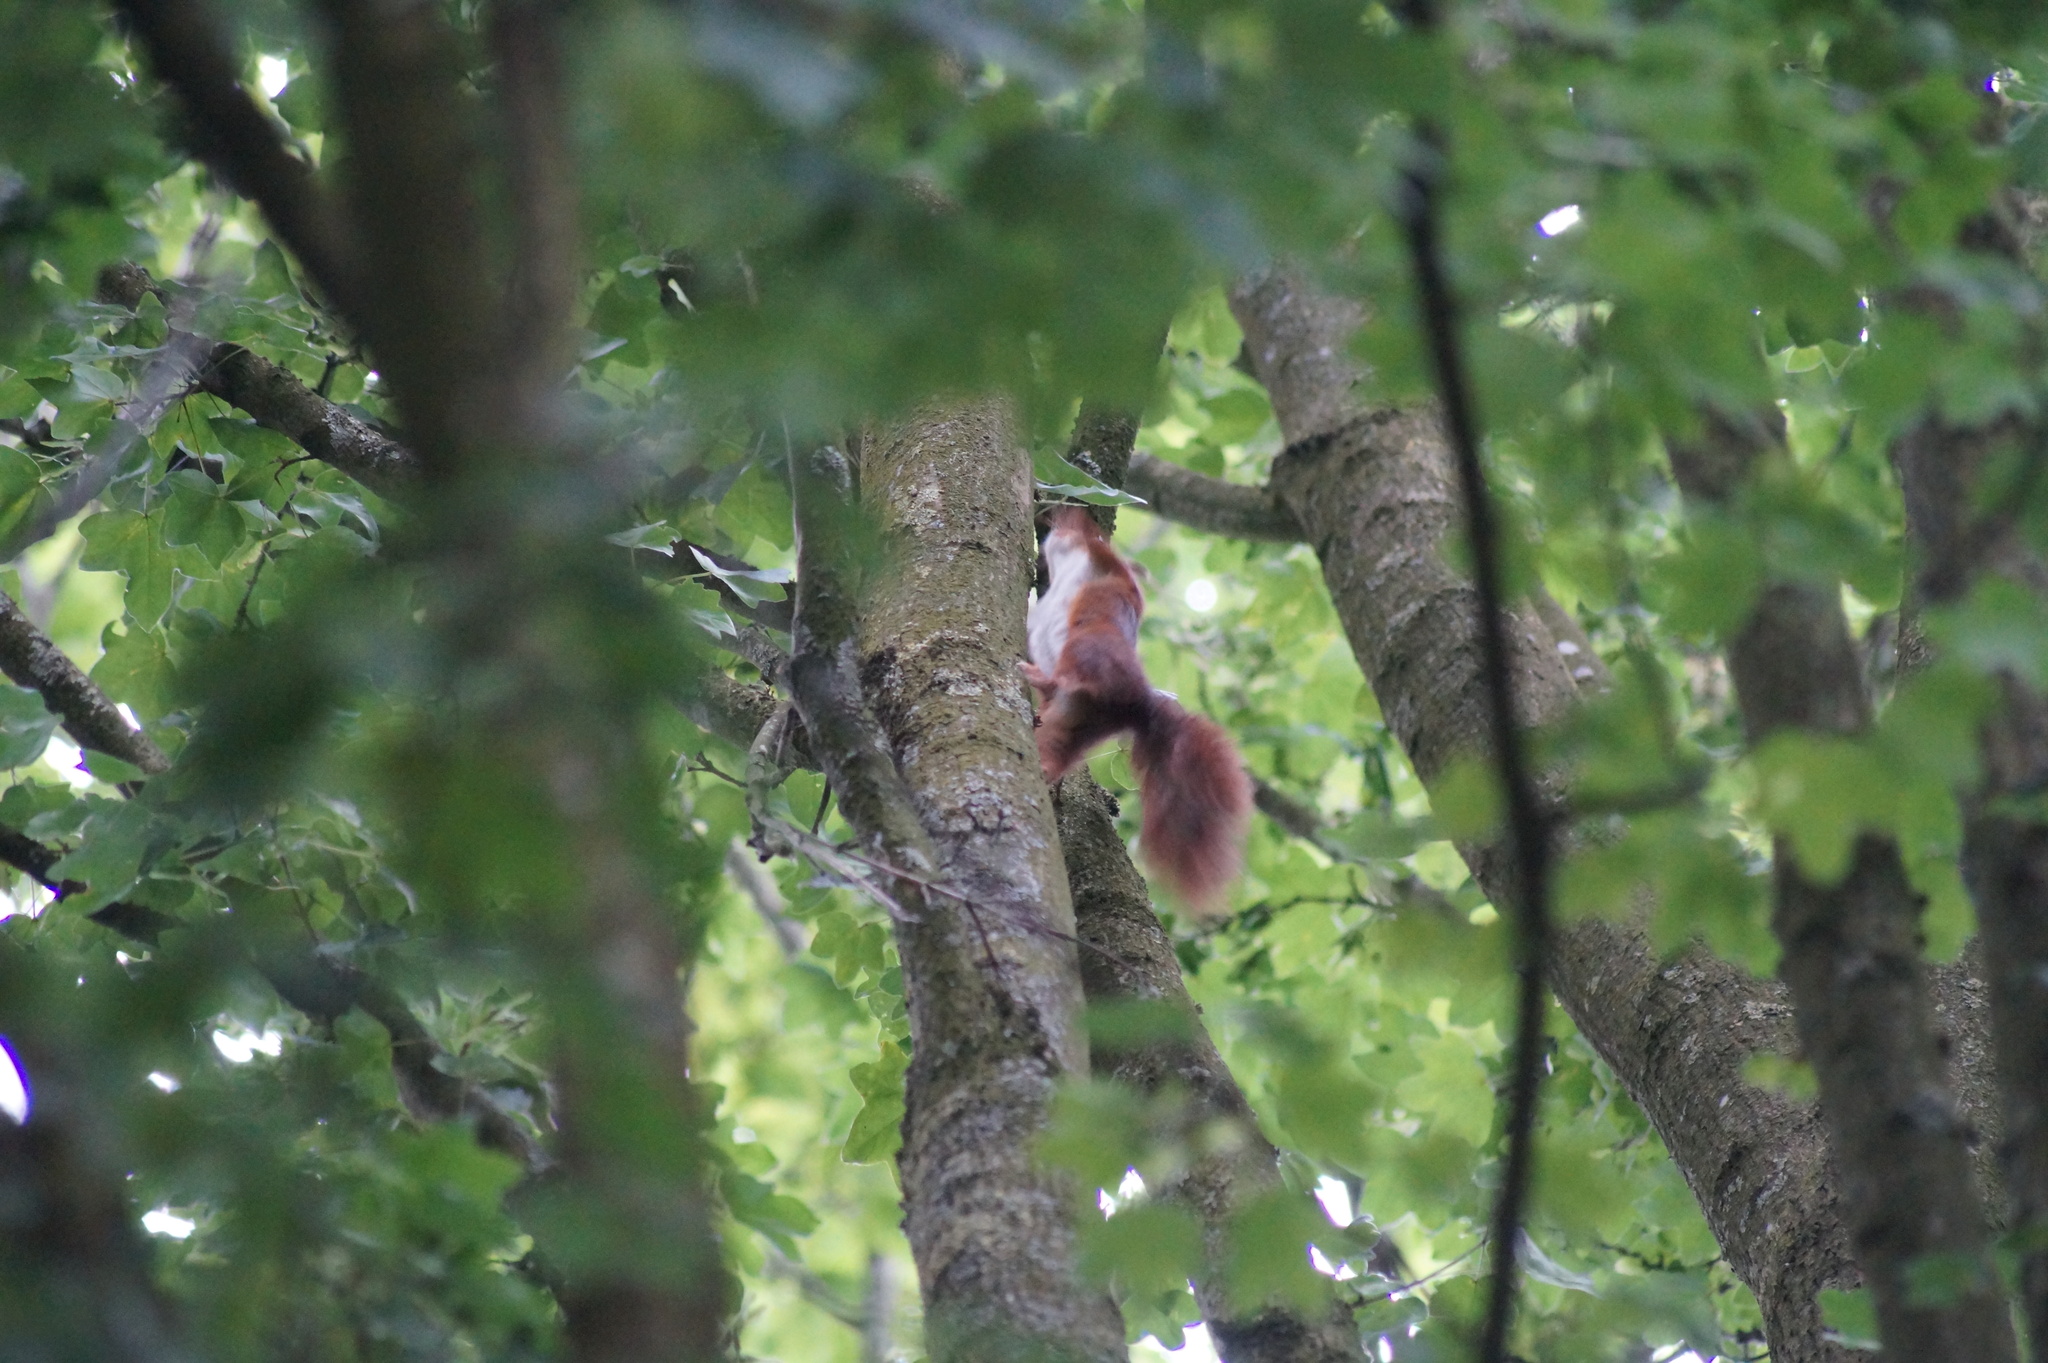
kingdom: Animalia
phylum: Chordata
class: Mammalia
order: Rodentia
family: Sciuridae
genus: Sciurus
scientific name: Sciurus vulgaris
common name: Eurasian red squirrel
